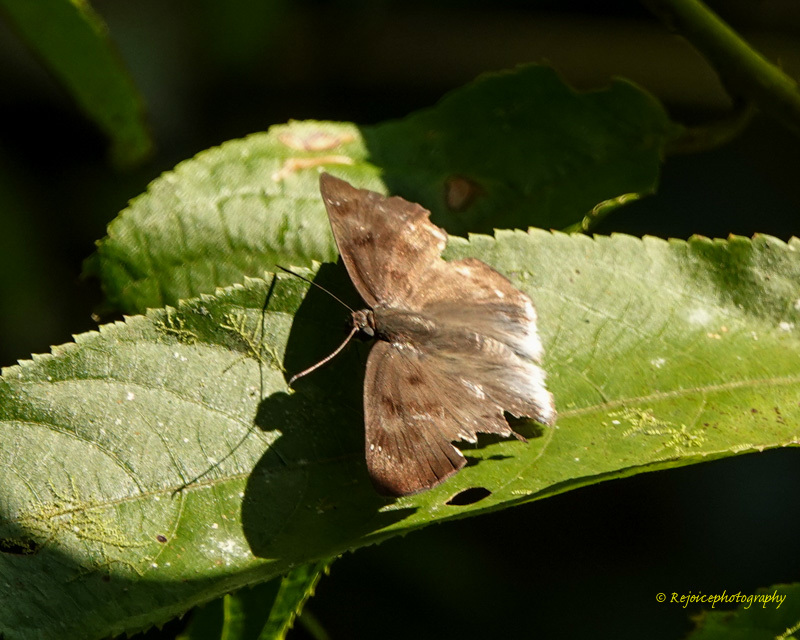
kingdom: Animalia
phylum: Arthropoda
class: Insecta
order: Lepidoptera
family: Hesperiidae
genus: Tagiades
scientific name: Tagiades gana
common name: Suffused snow flat
